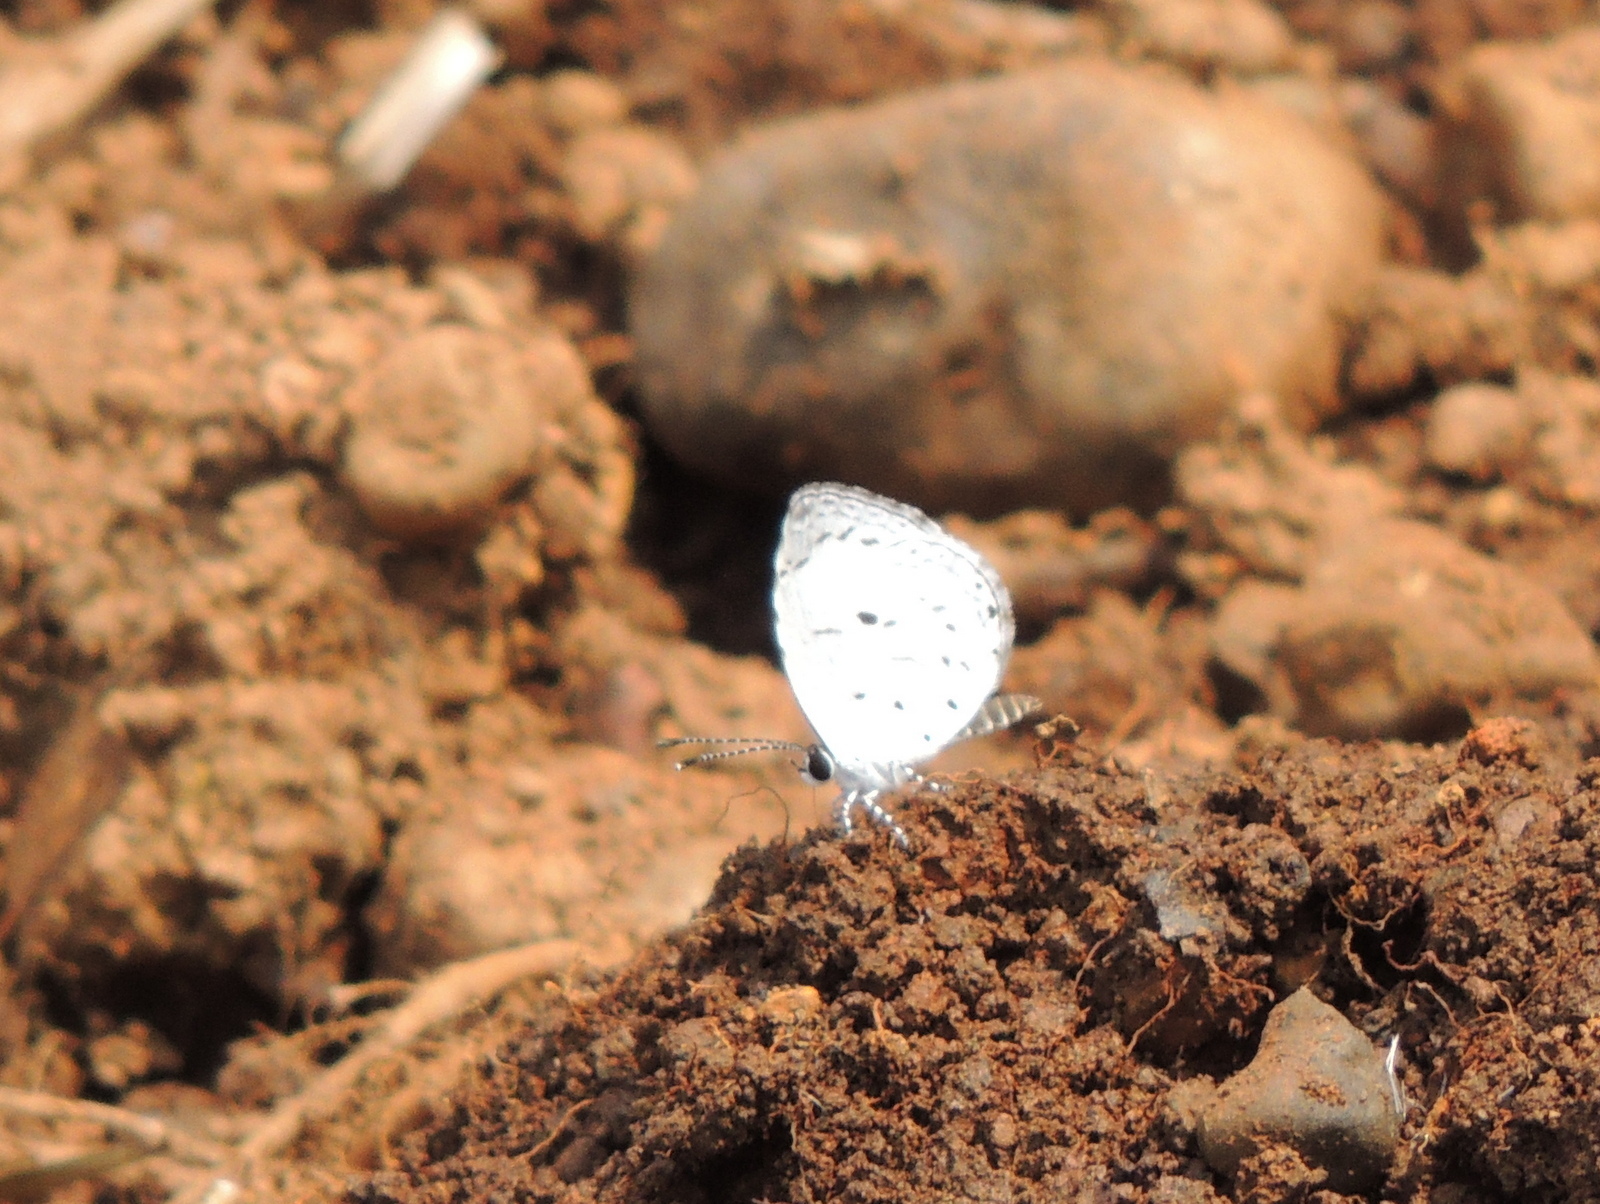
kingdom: Animalia
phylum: Arthropoda
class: Insecta
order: Lepidoptera
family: Lycaenidae
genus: Neopithecops
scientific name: Neopithecops zalmora
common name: Quaker
